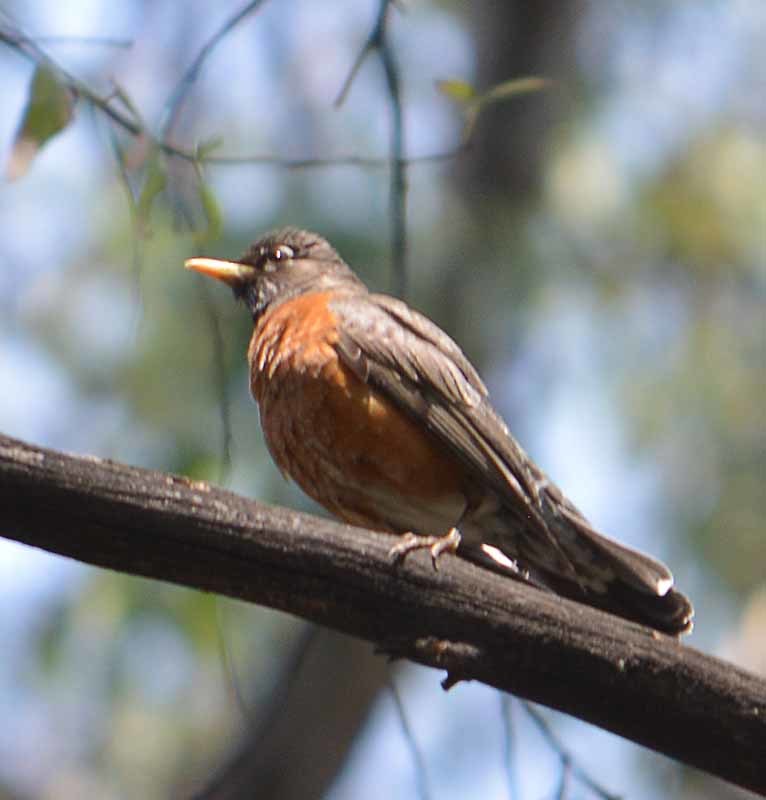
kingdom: Animalia
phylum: Chordata
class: Aves
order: Passeriformes
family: Turdidae
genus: Turdus
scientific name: Turdus migratorius
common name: American robin
